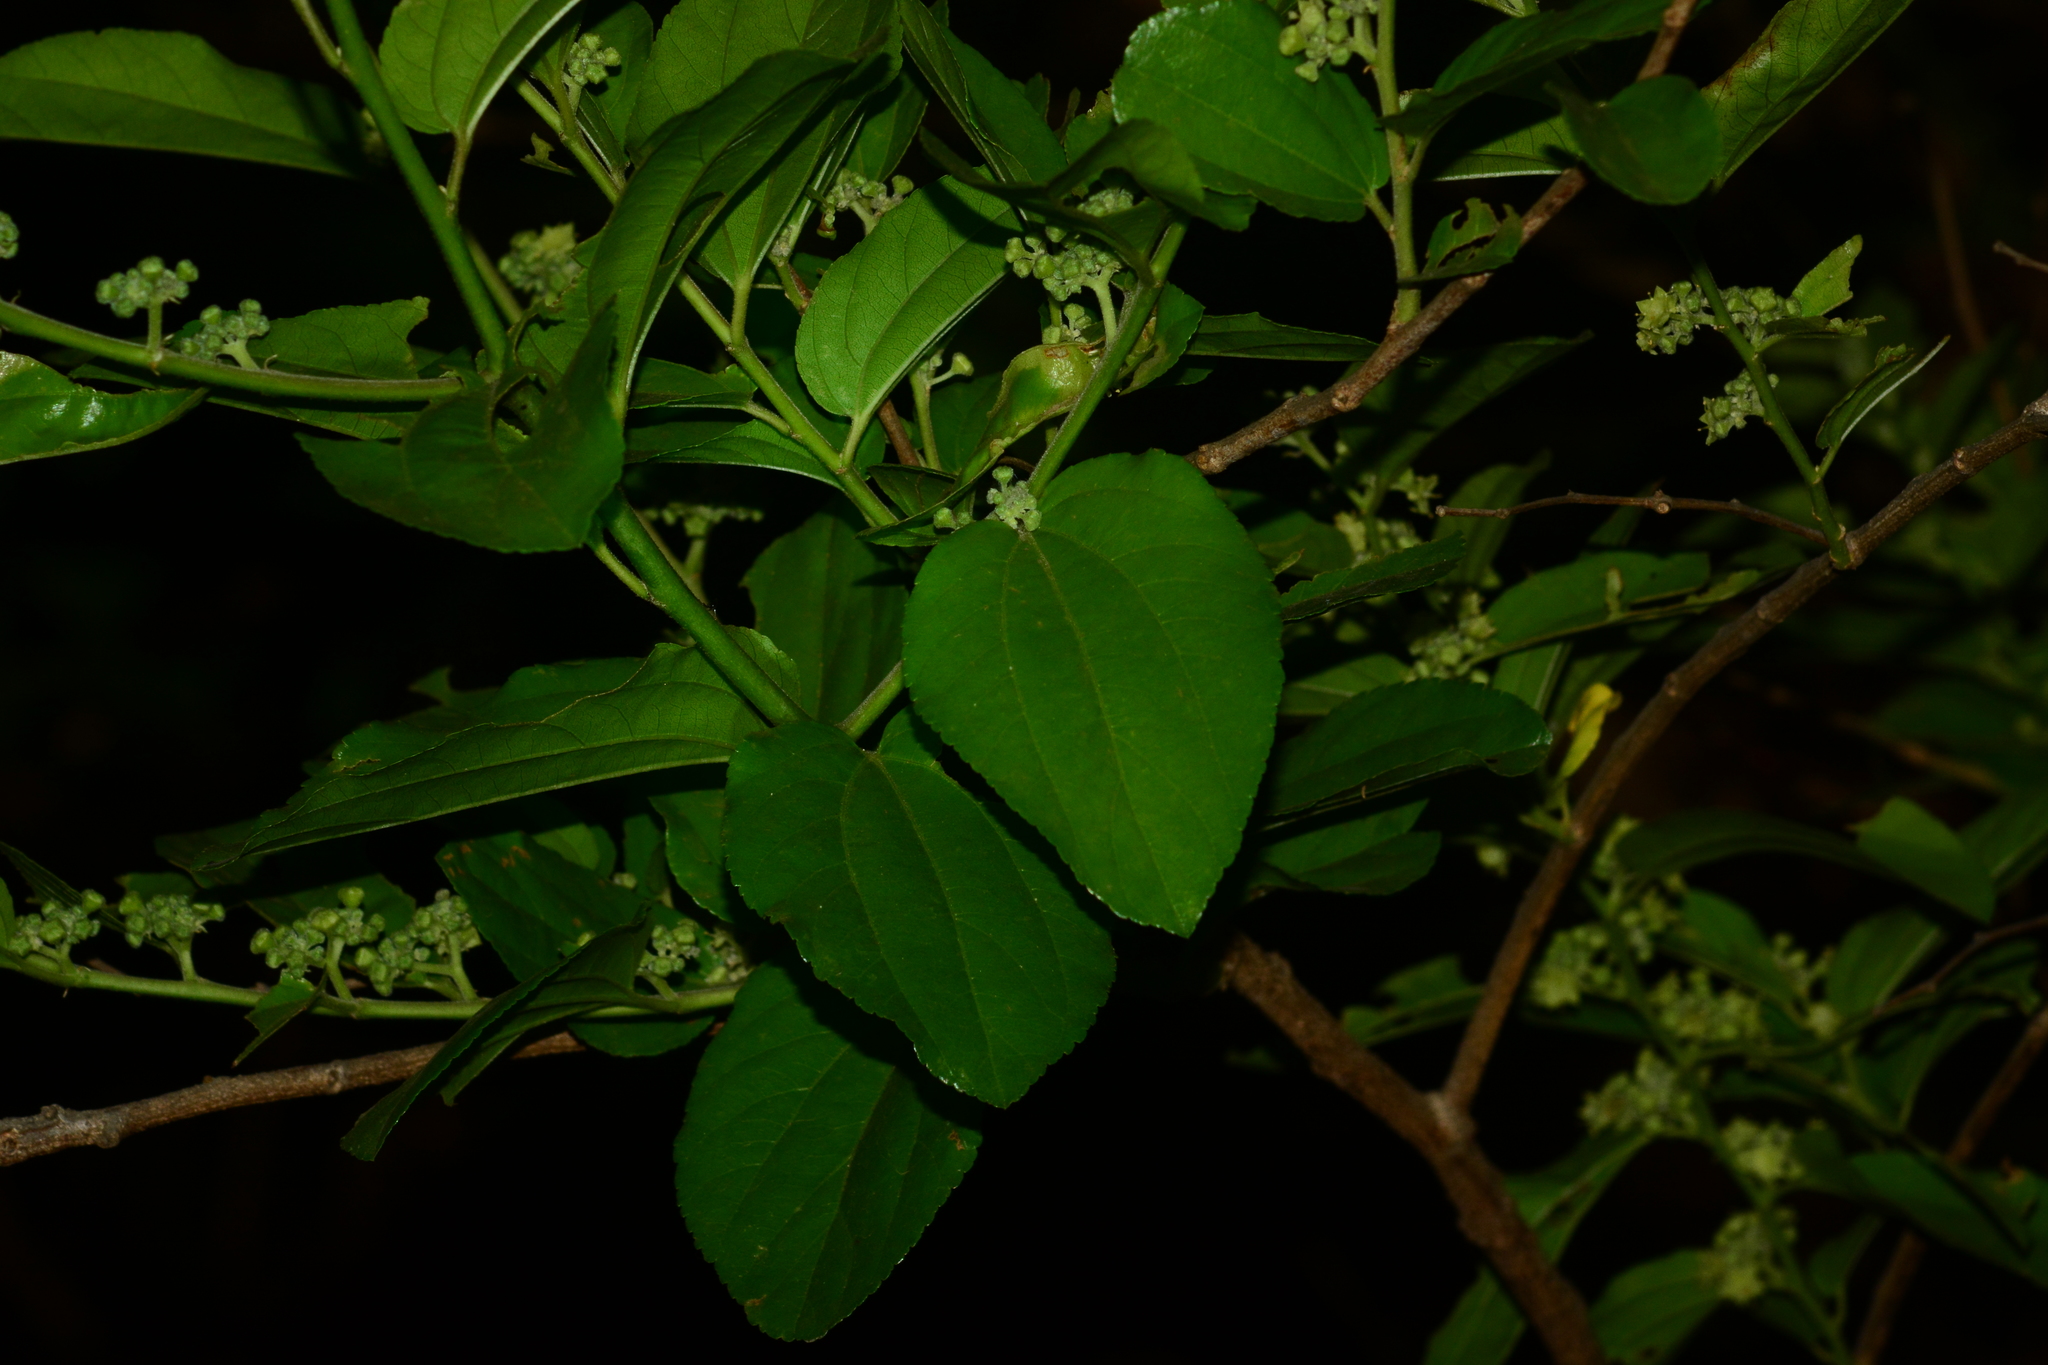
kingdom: Plantae
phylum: Tracheophyta
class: Magnoliopsida
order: Rosales
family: Rhamnaceae
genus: Ziziphus
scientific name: Ziziphus xylopyrus
